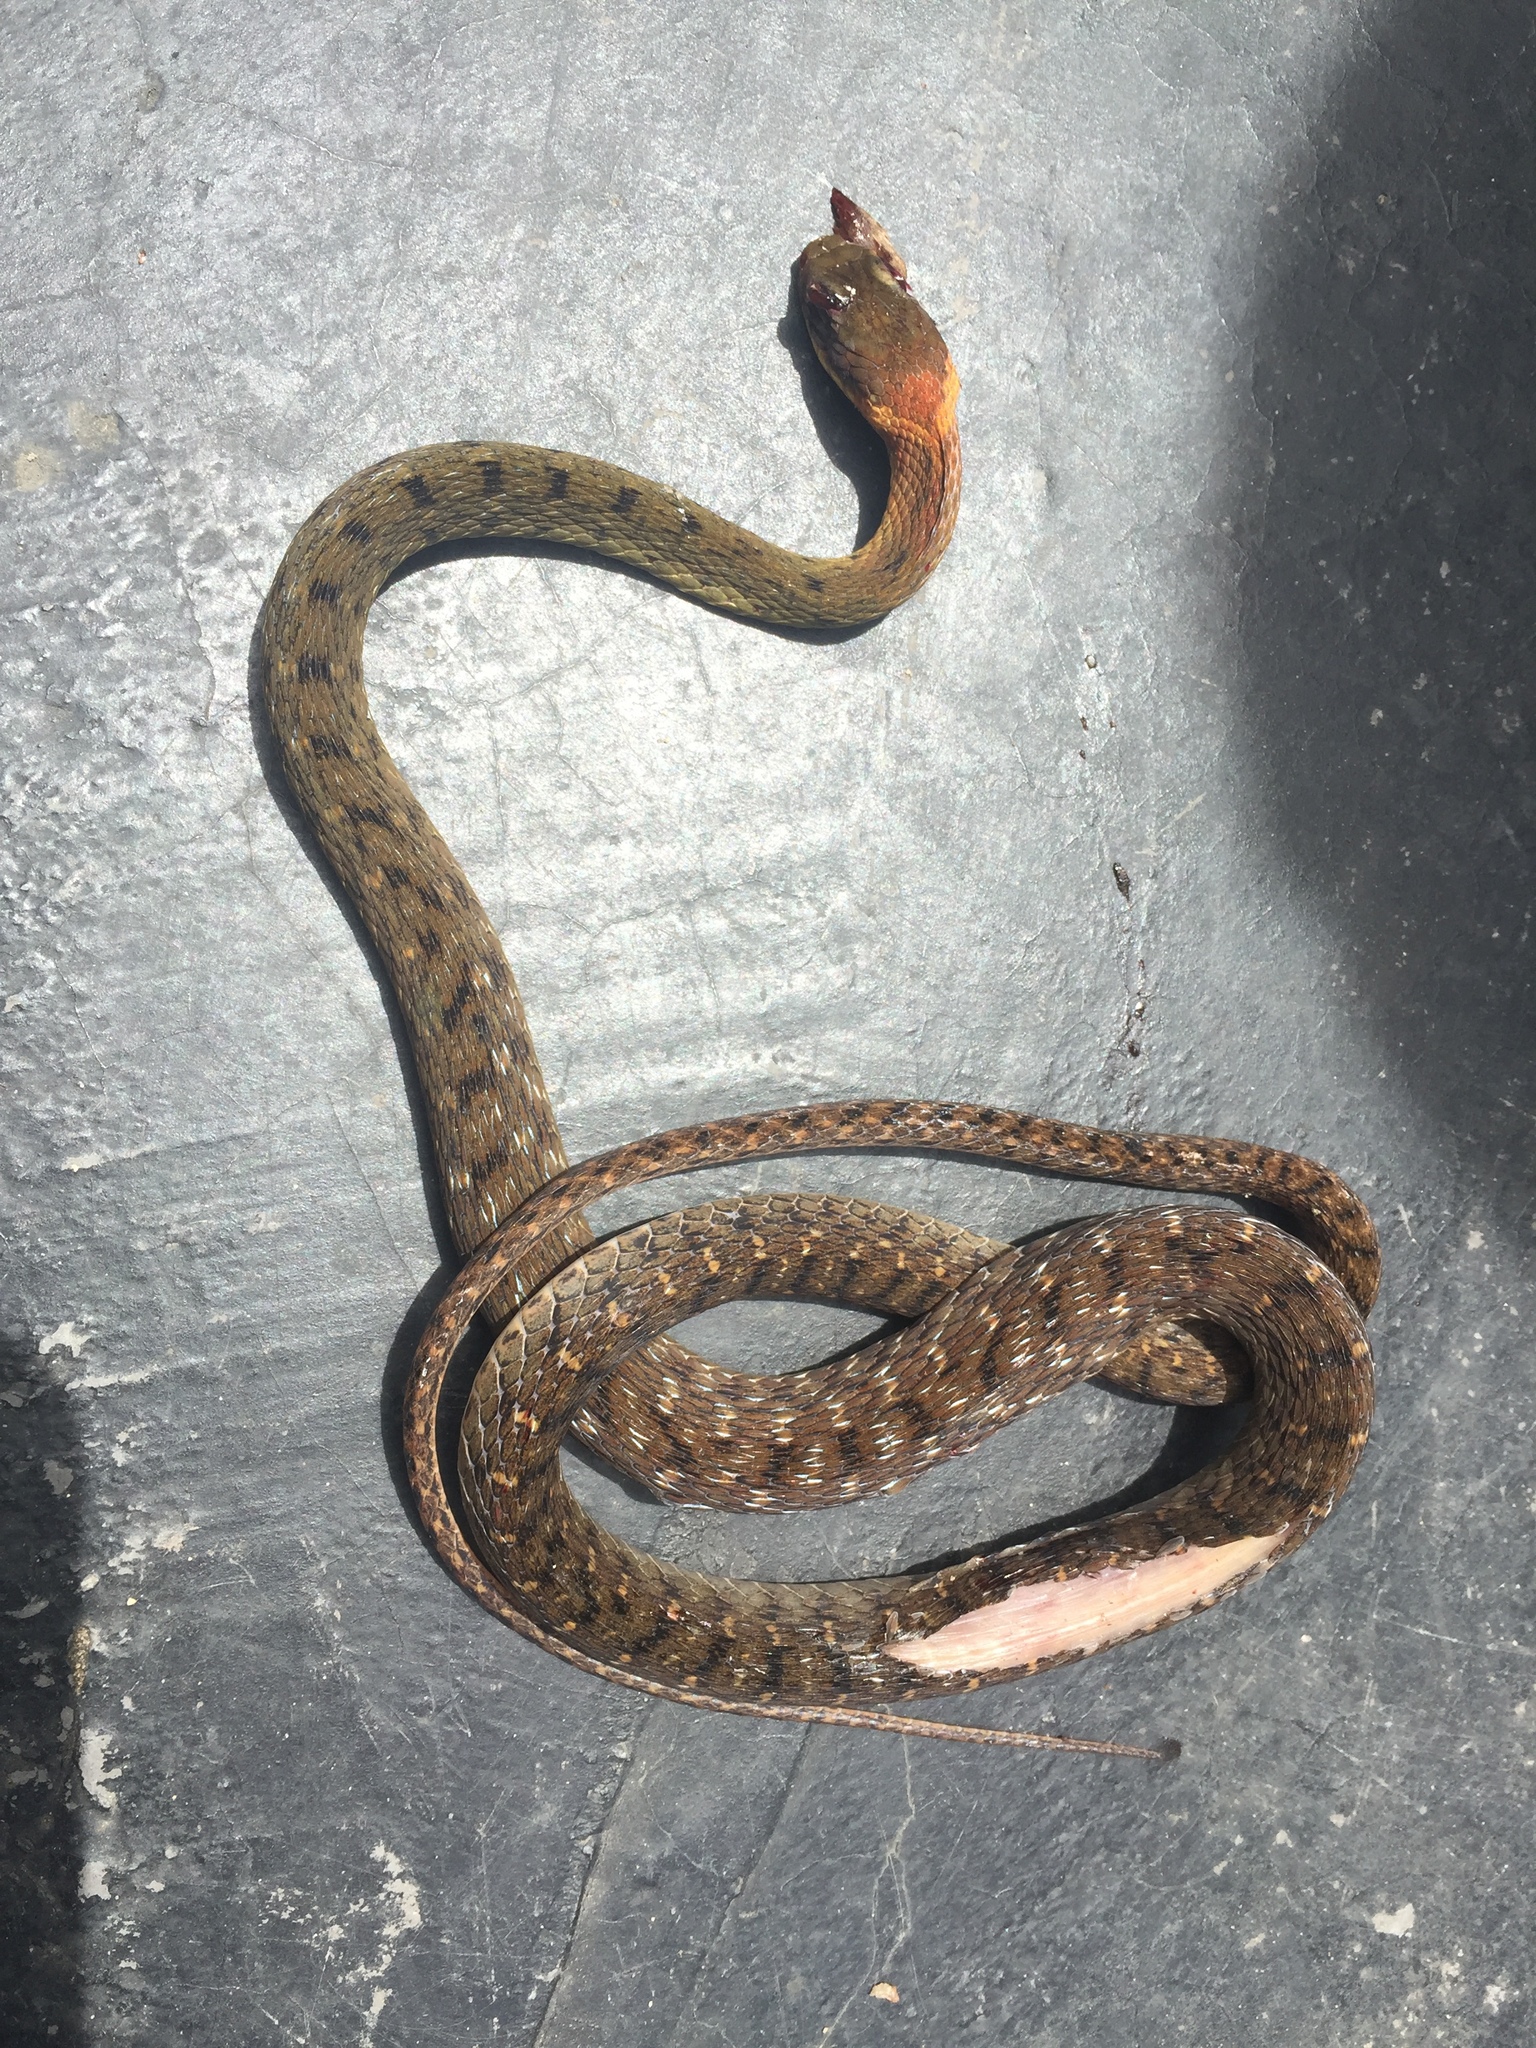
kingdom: Animalia
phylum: Chordata
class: Squamata
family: Colubridae
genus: Rhabdophis
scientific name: Rhabdophis chrysargos
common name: Specklebelly keelback
